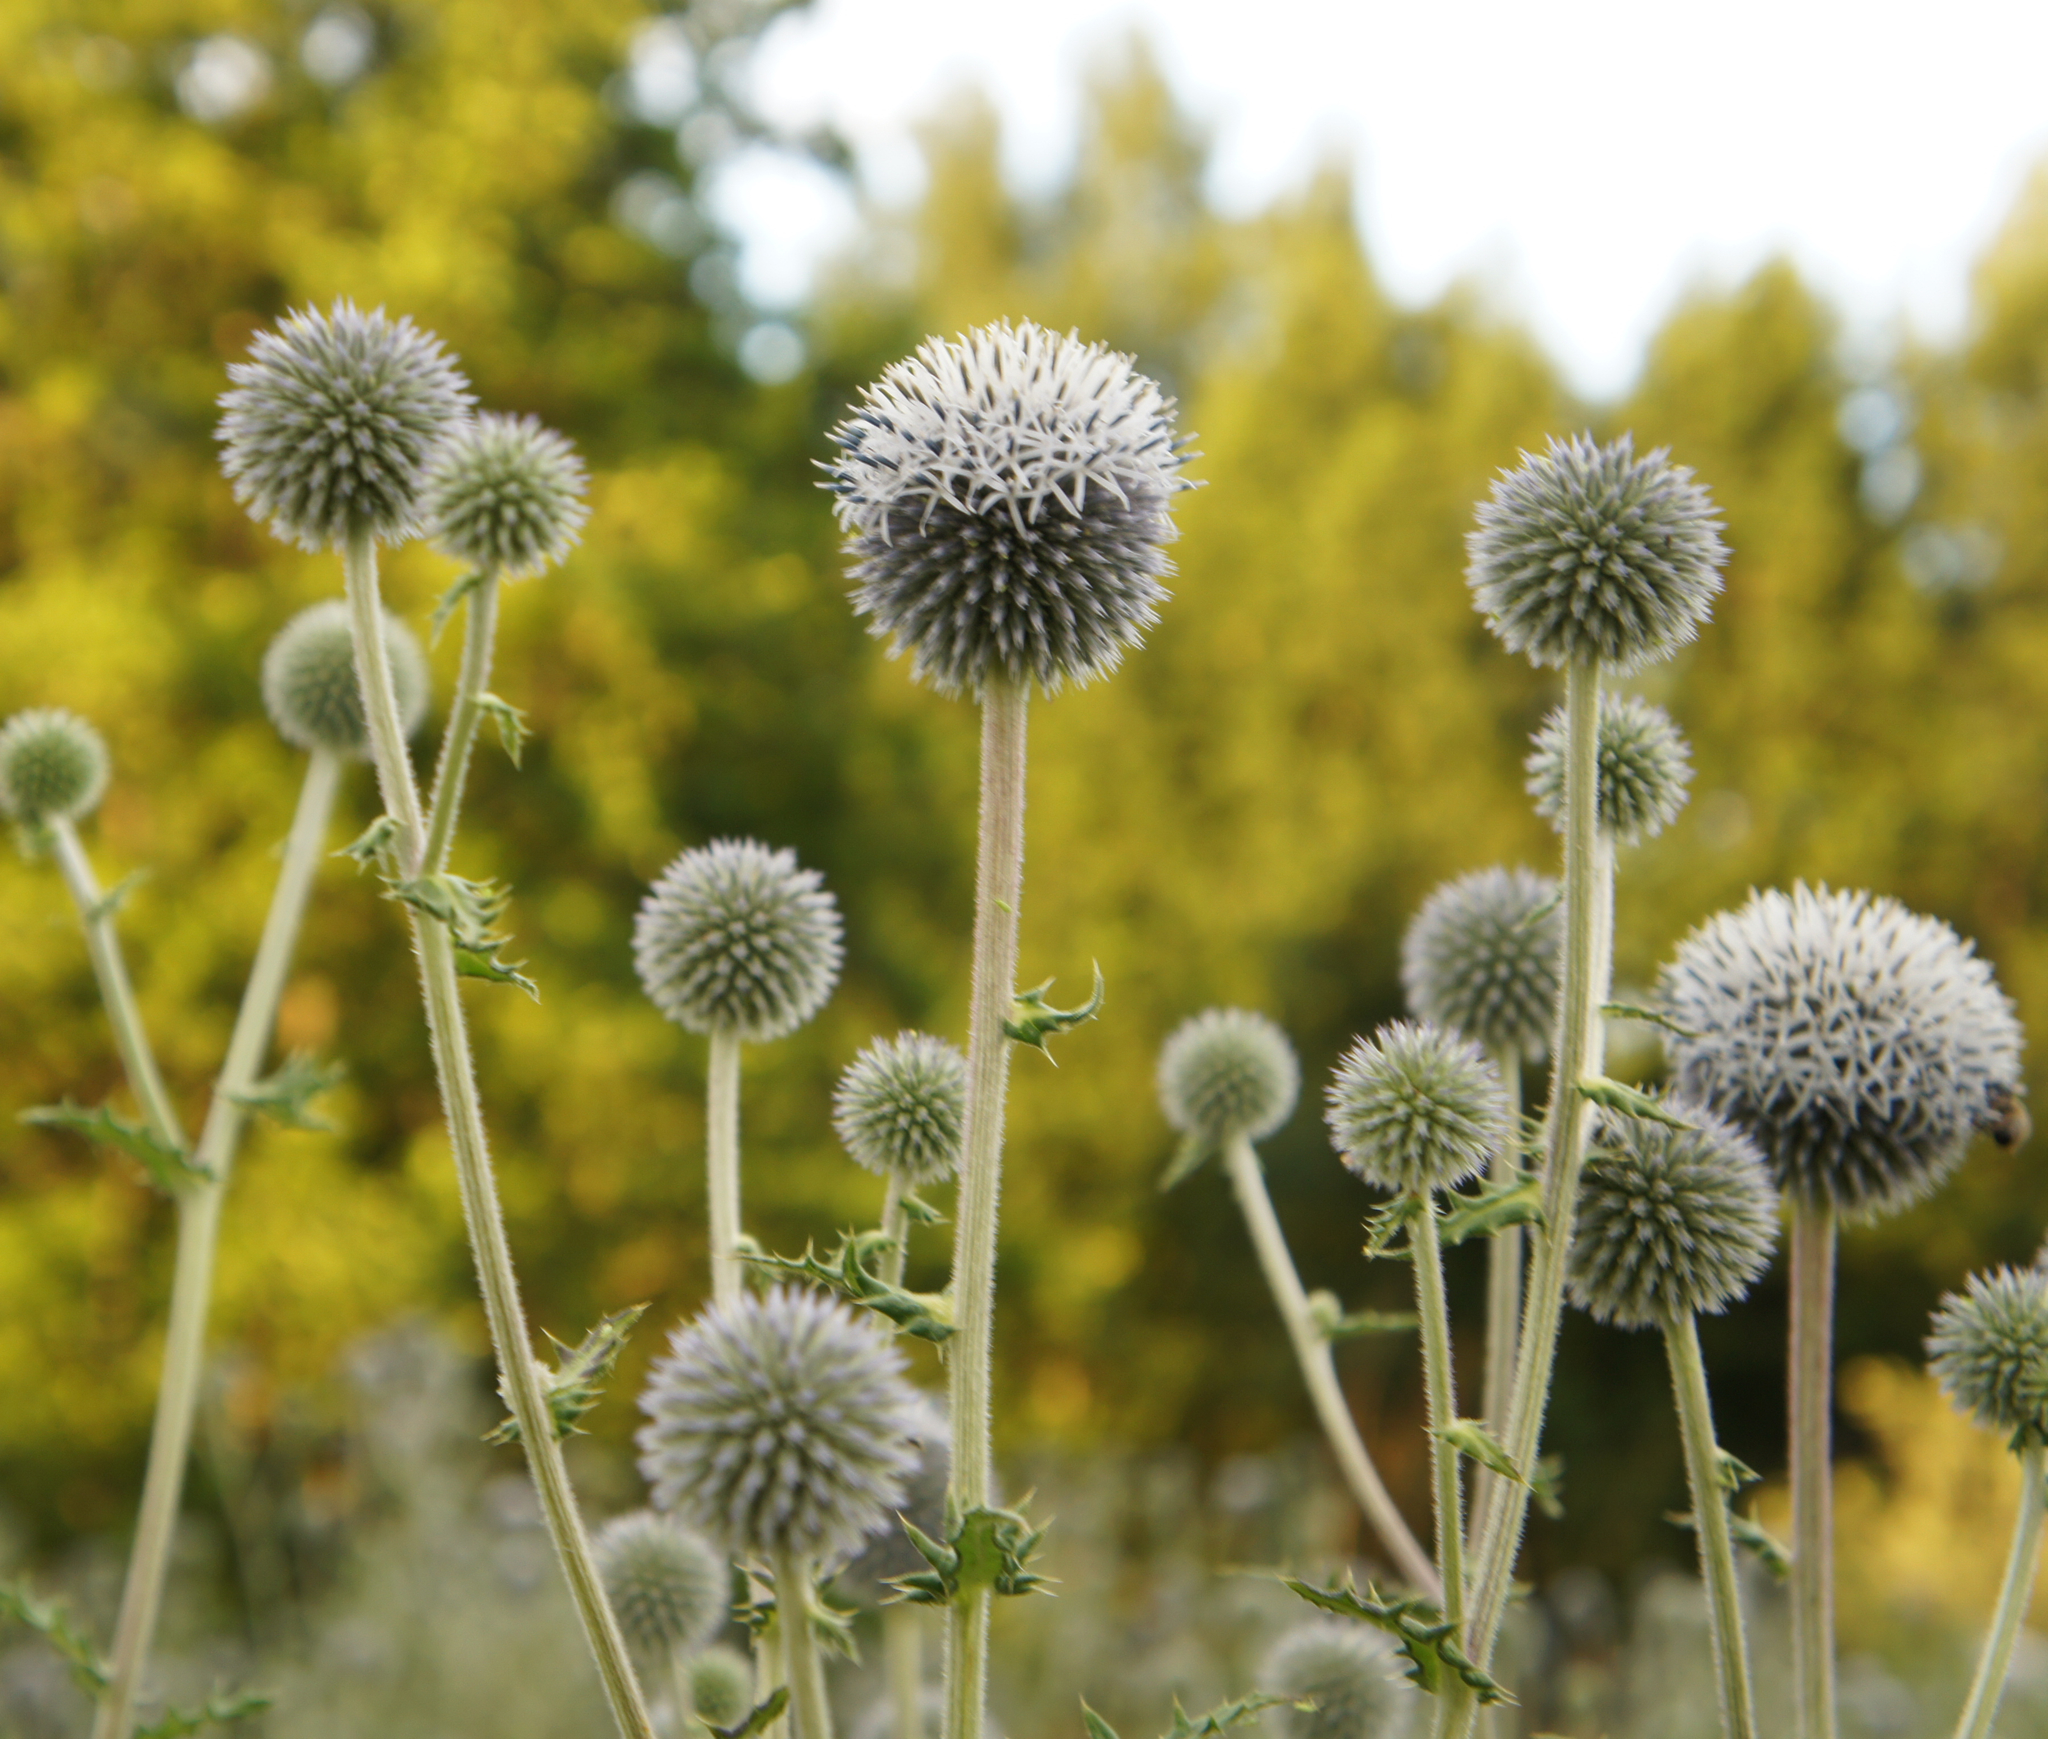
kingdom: Plantae
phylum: Tracheophyta
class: Magnoliopsida
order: Asterales
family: Asteraceae
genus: Echinops
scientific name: Echinops sphaerocephalus
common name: Glandular globe-thistle
